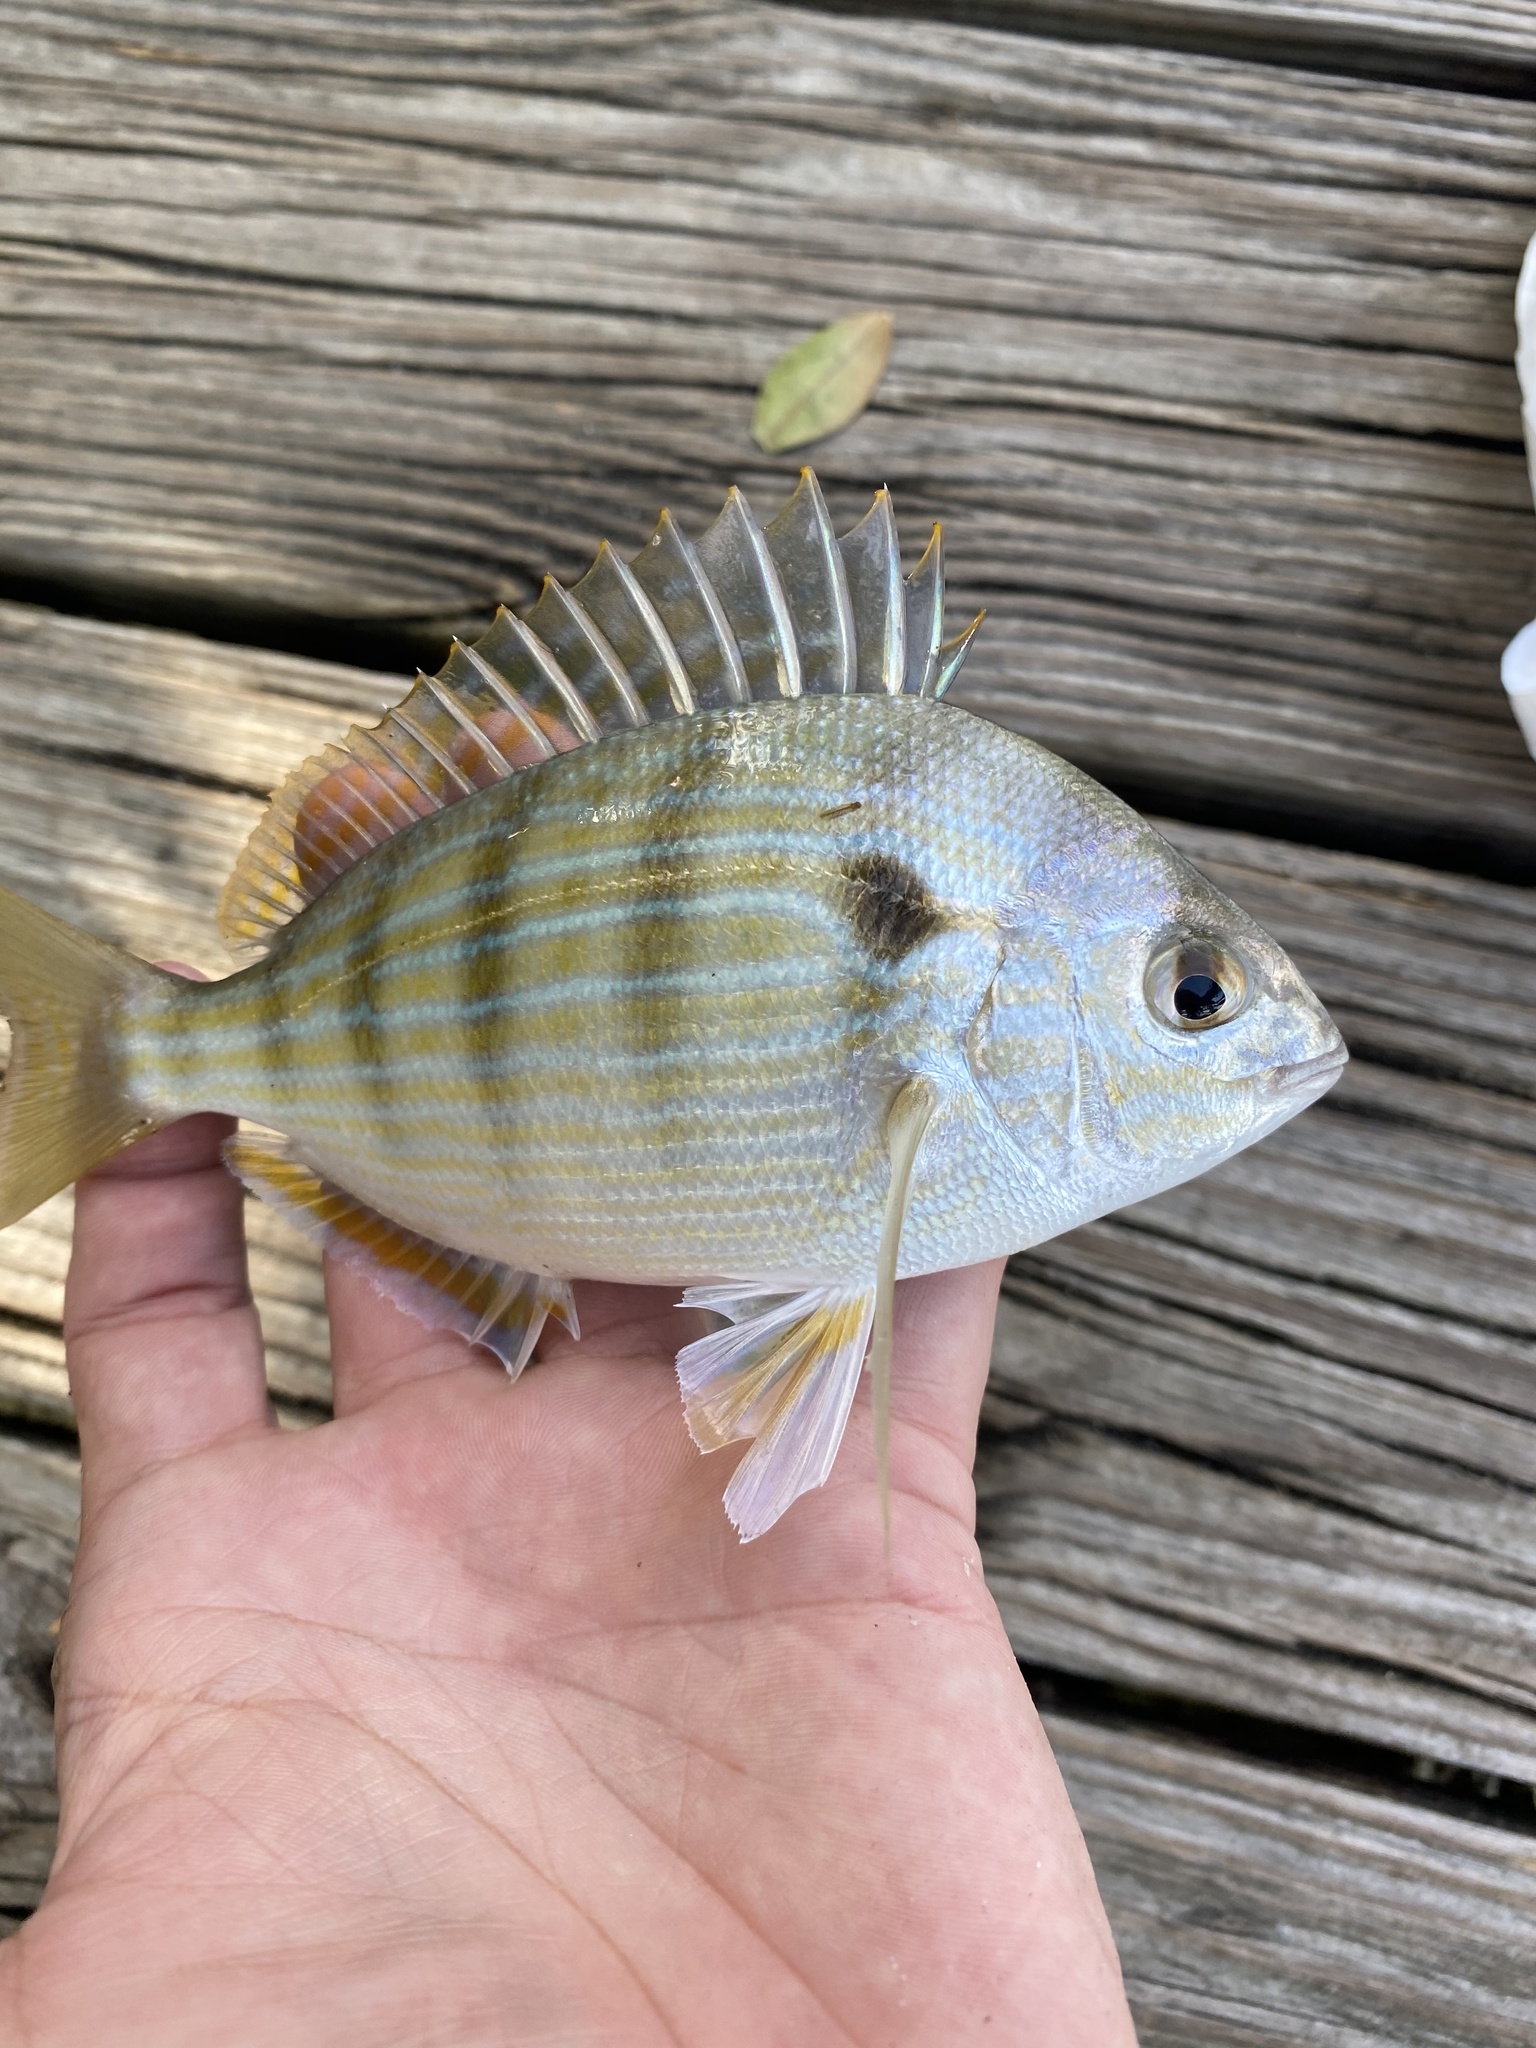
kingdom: Animalia
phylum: Chordata
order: Perciformes
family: Sparidae
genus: Lagodon
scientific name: Lagodon rhomboides
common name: Pinfish
